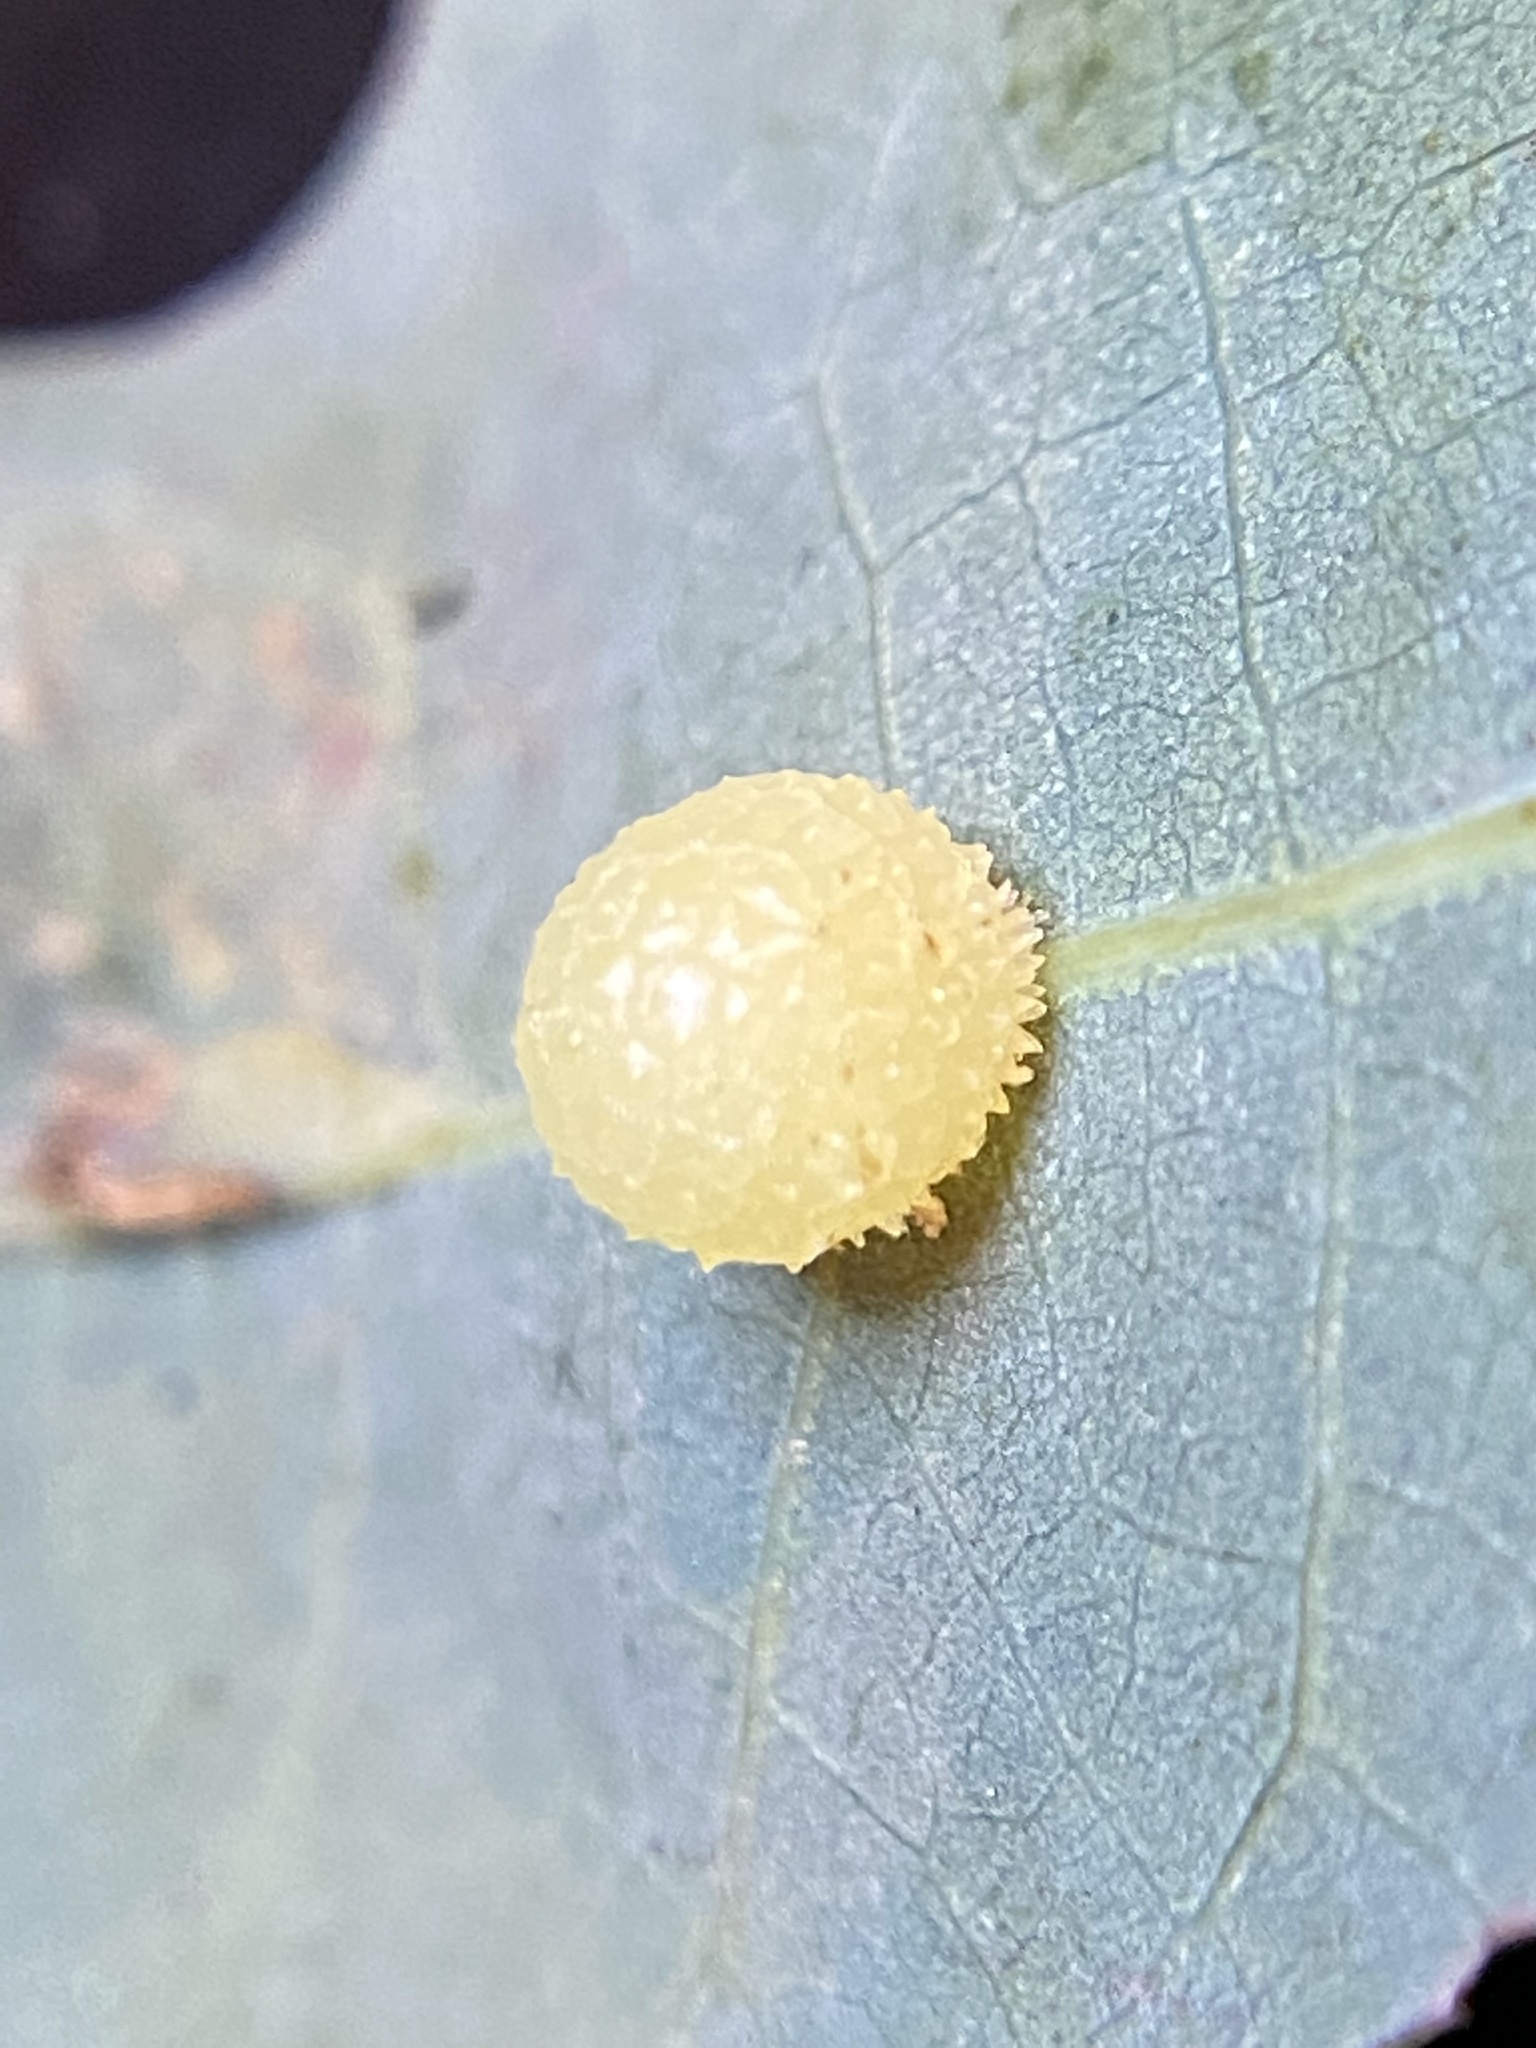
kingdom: Animalia
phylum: Arthropoda
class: Insecta
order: Hymenoptera
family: Cynipidae
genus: Acraspis
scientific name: Acraspis
